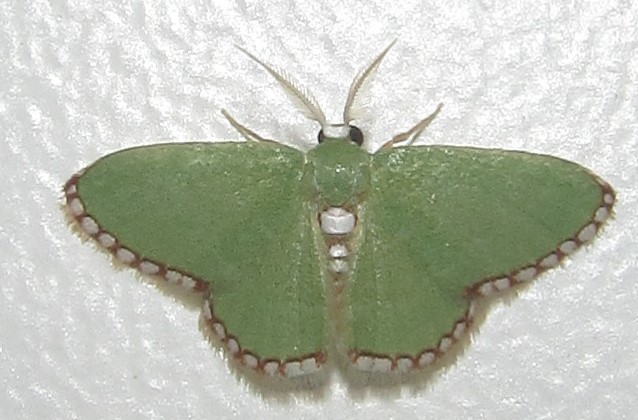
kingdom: Animalia
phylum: Arthropoda
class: Insecta
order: Lepidoptera
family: Geometridae
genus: Allochrostes
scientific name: Allochrostes impunctata
